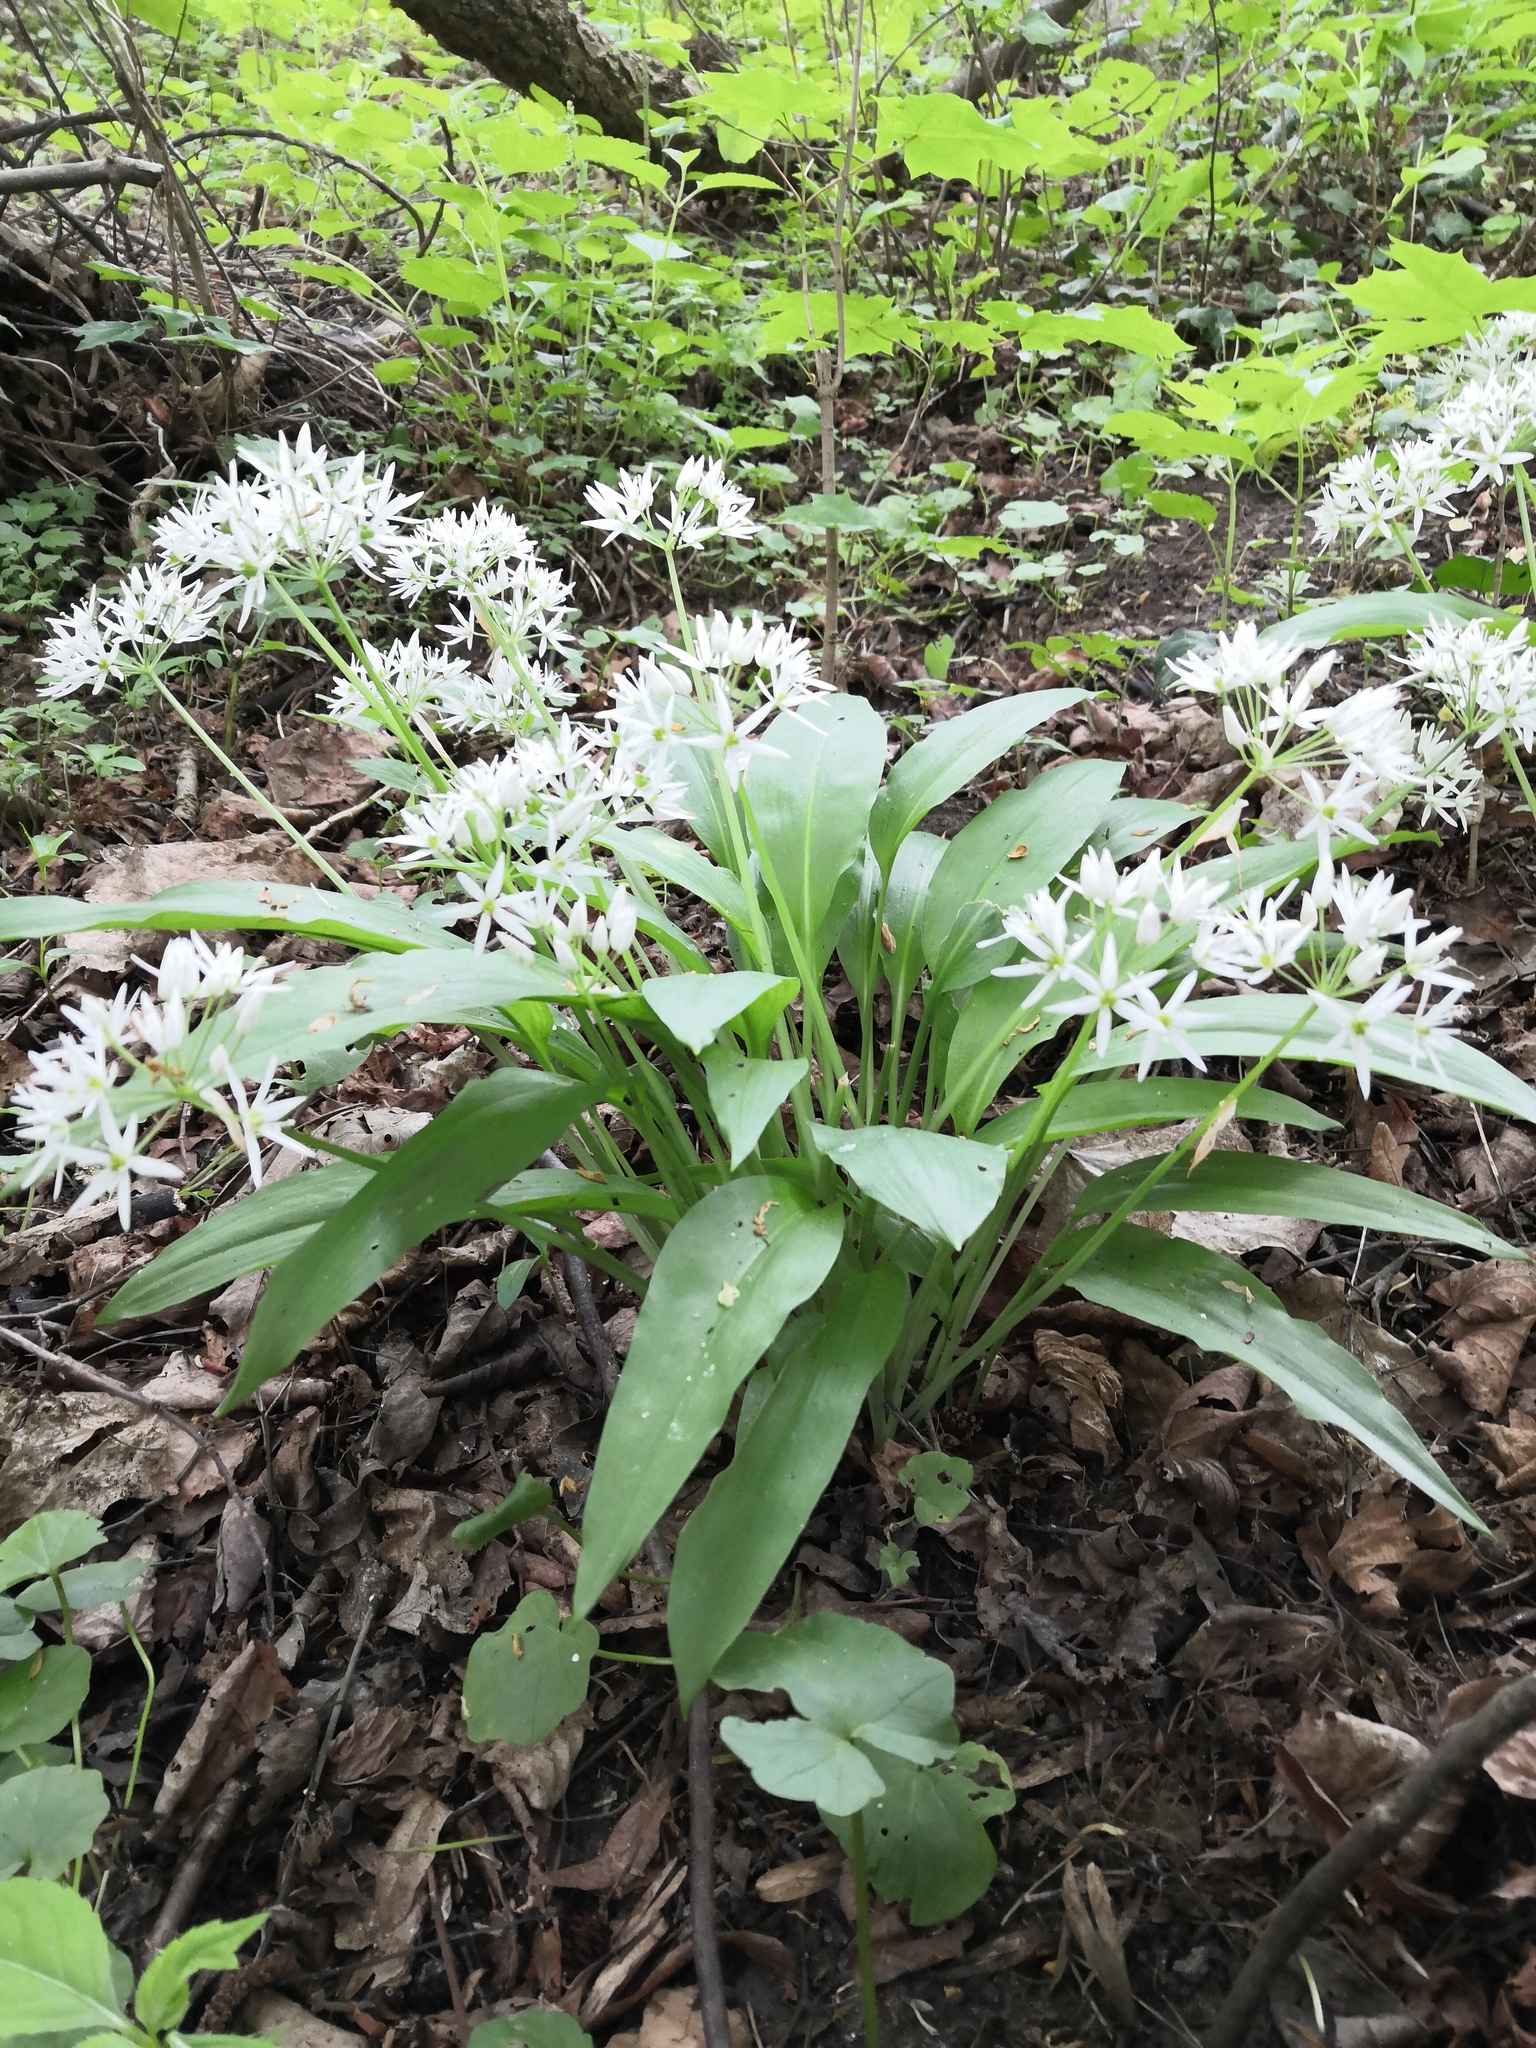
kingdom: Plantae
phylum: Tracheophyta
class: Liliopsida
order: Asparagales
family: Amaryllidaceae
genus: Allium
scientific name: Allium ursinum
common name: Ramsons
